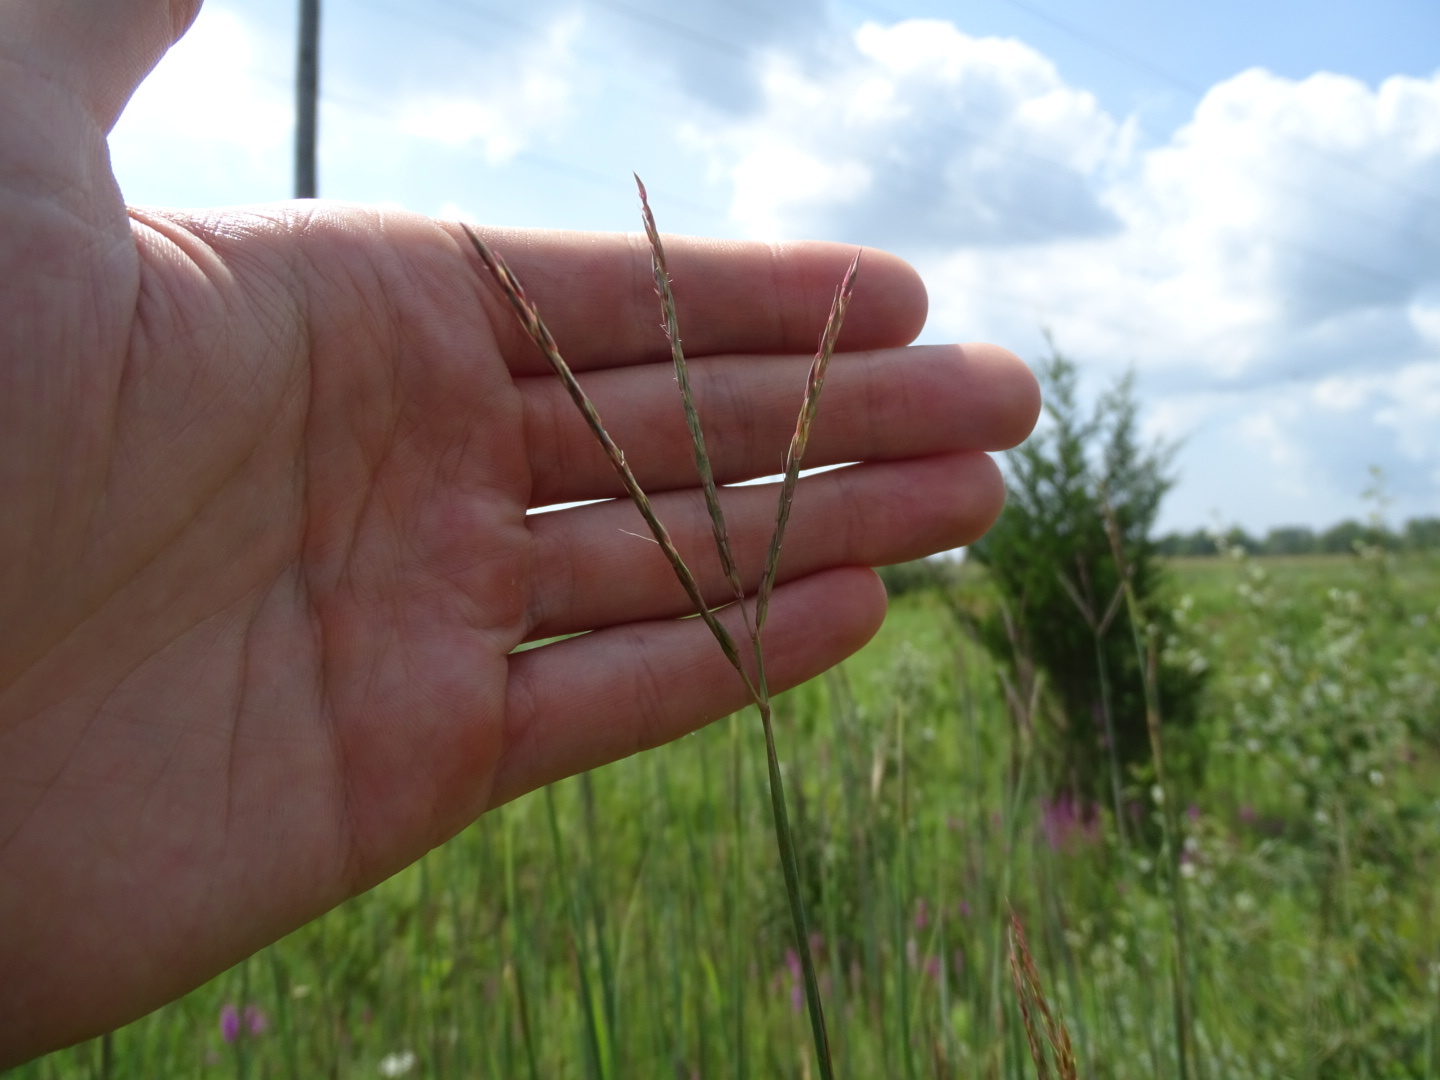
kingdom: Plantae
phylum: Tracheophyta
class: Liliopsida
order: Poales
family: Poaceae
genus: Andropogon
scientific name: Andropogon gerardi
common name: Big bluestem
